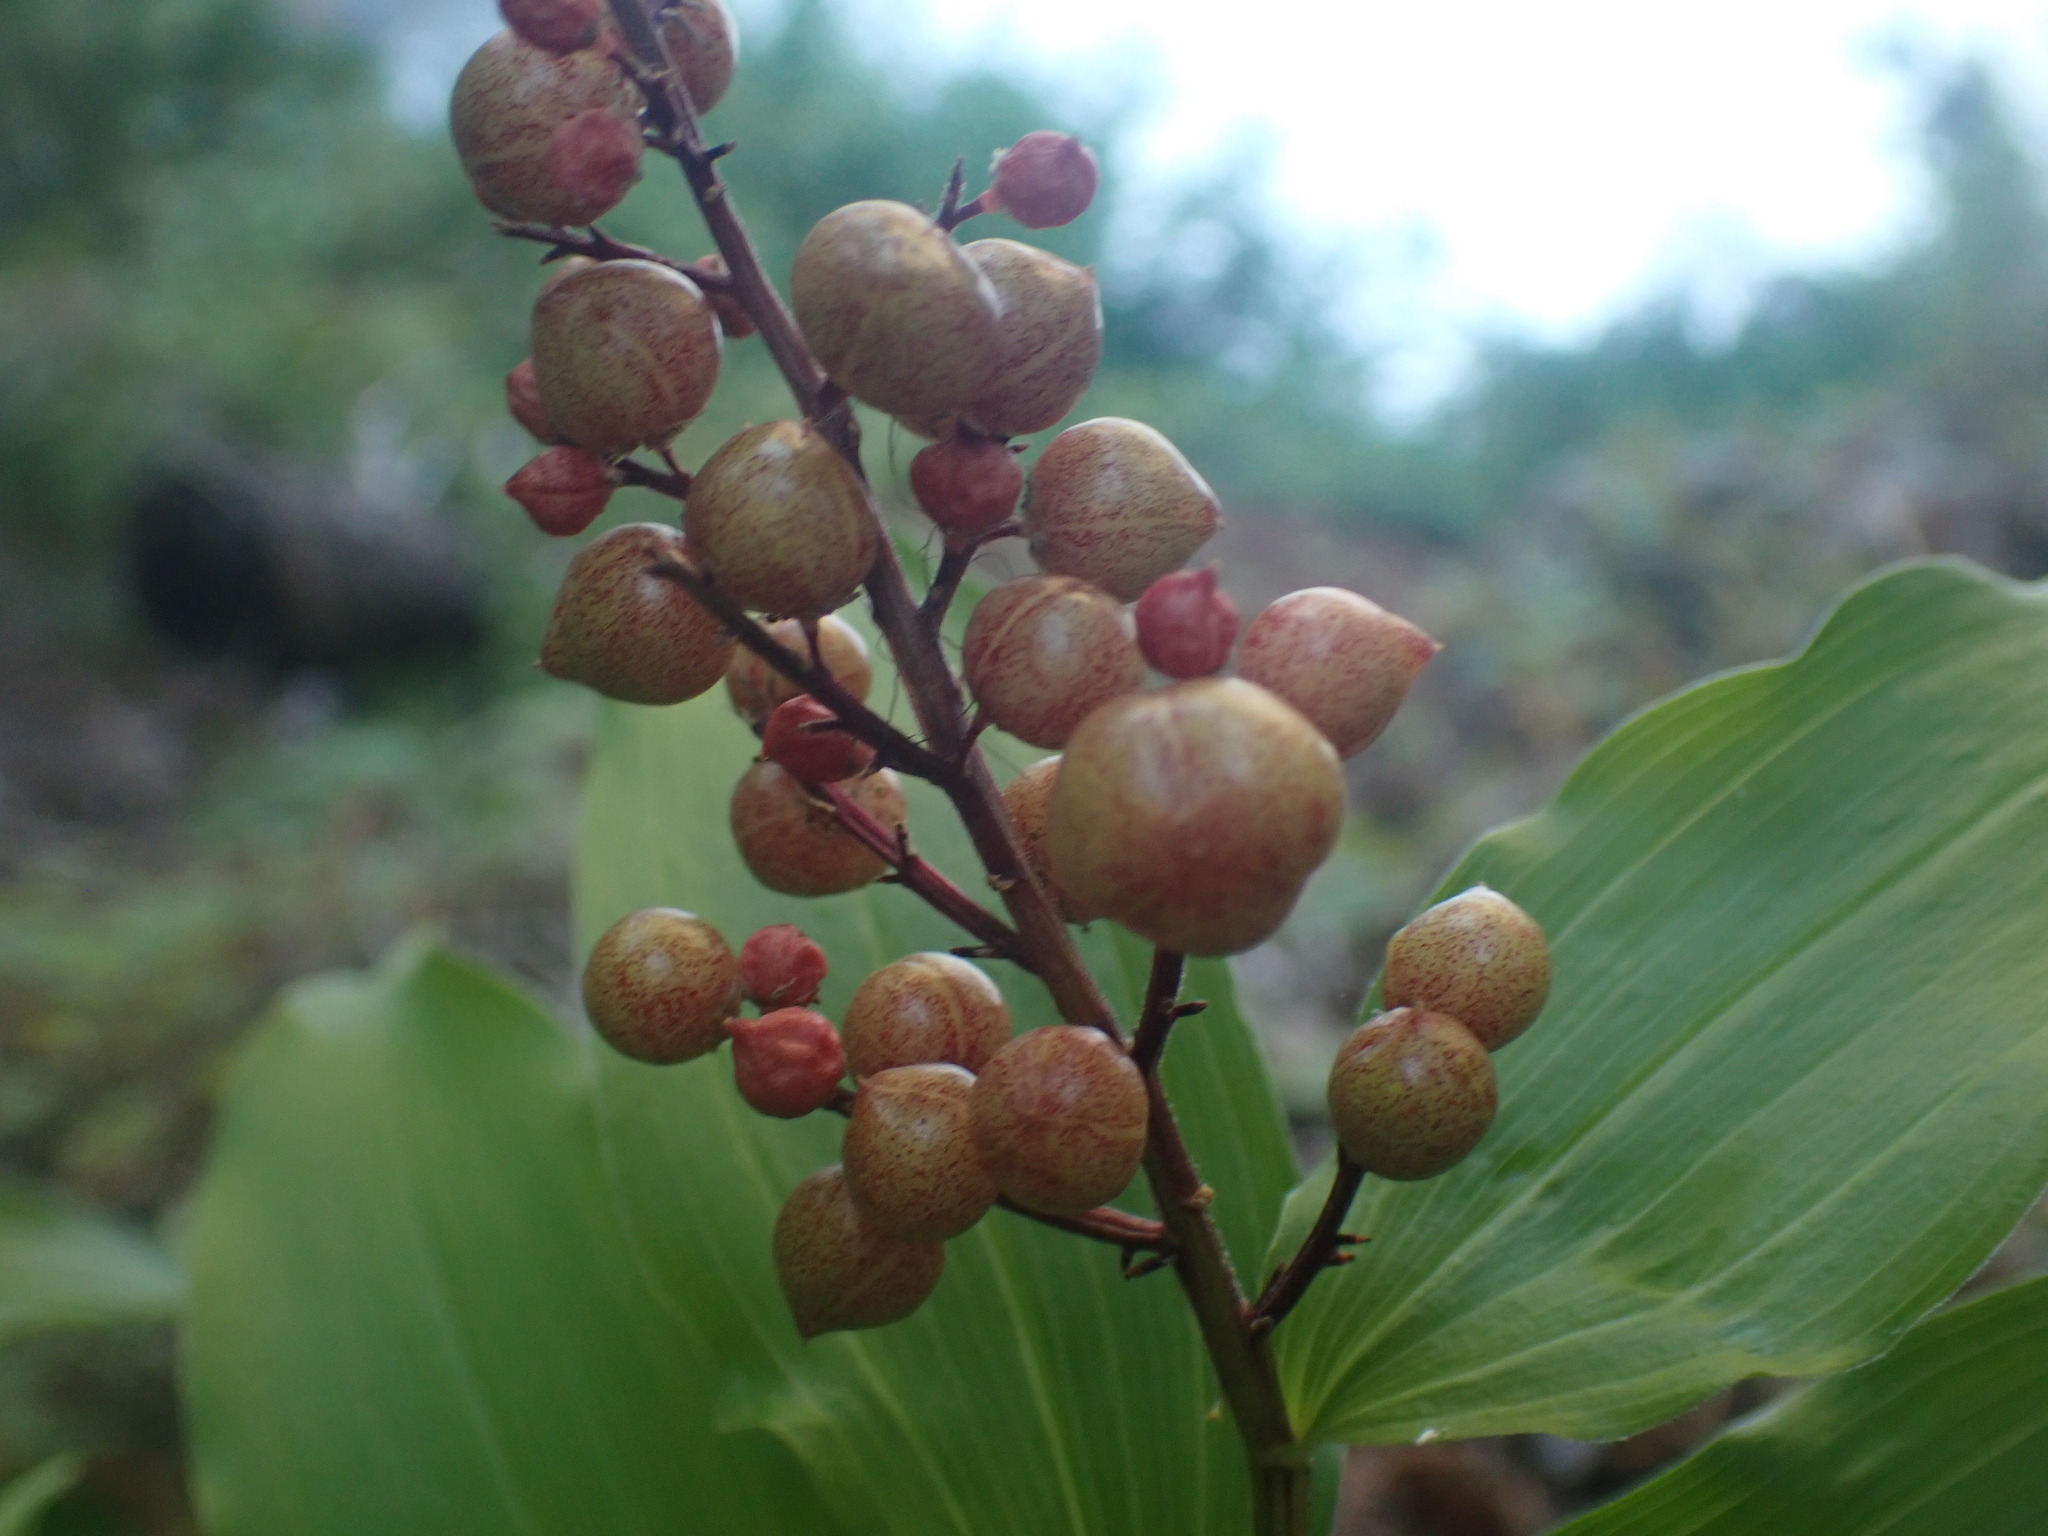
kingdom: Plantae
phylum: Tracheophyta
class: Liliopsida
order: Asparagales
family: Asparagaceae
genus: Maianthemum
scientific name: Maianthemum racemosum
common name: False spikenard
